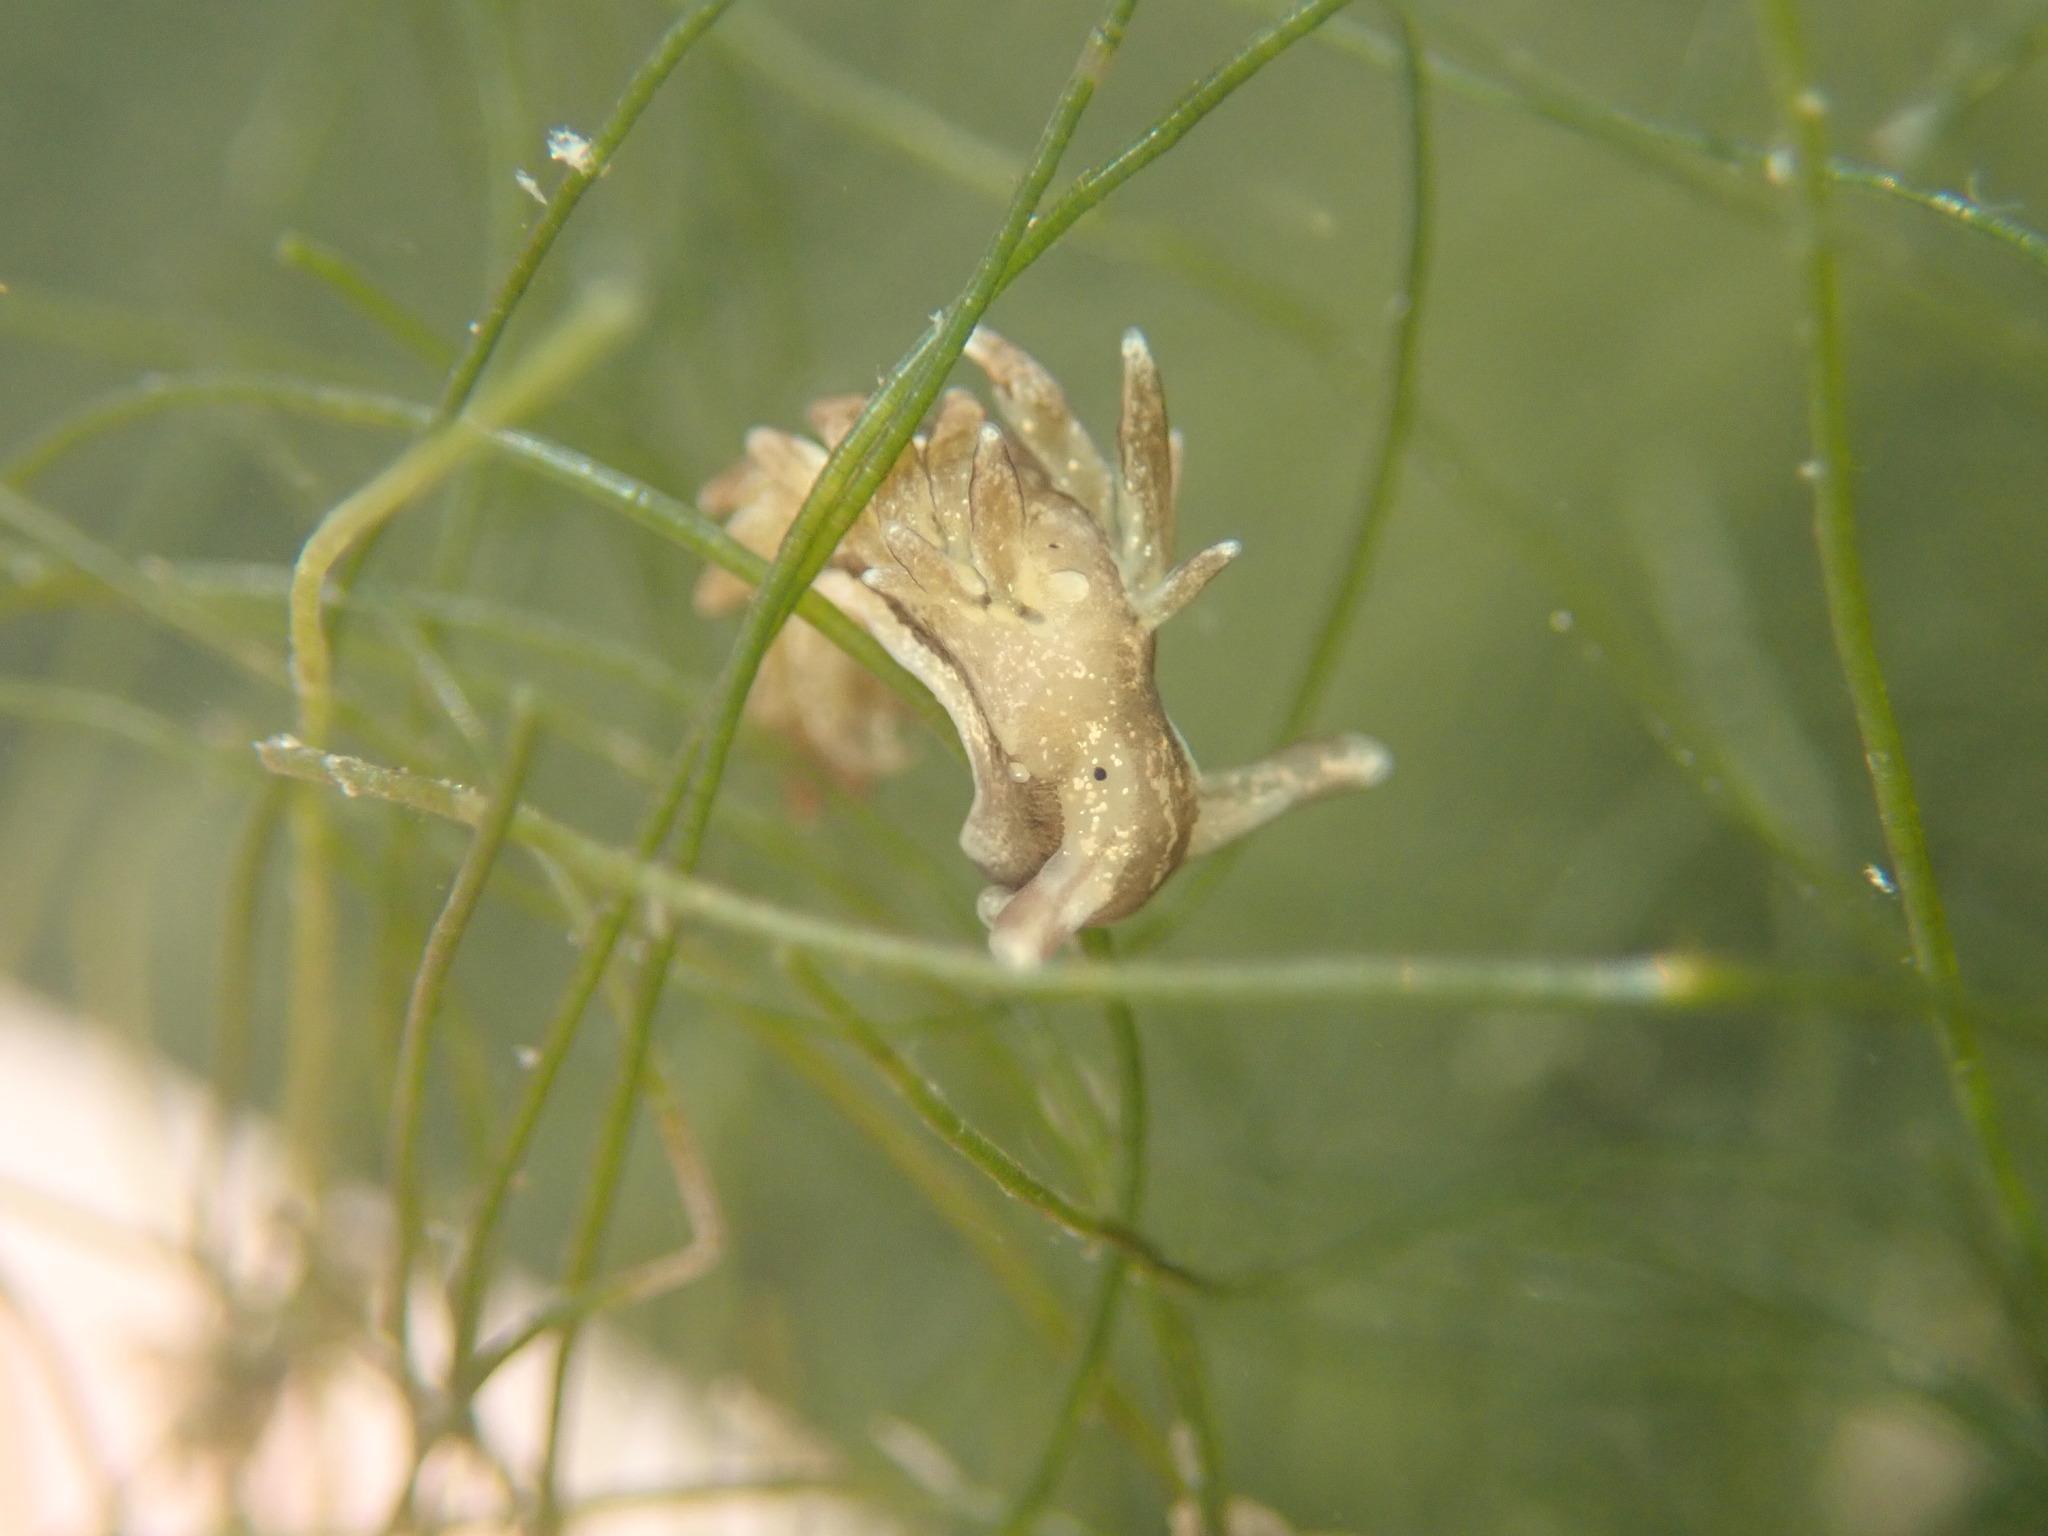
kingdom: Animalia
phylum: Mollusca
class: Gastropoda
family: Hermaeidae
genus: Aplysiopsis
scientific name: Aplysiopsis enteromorphae
